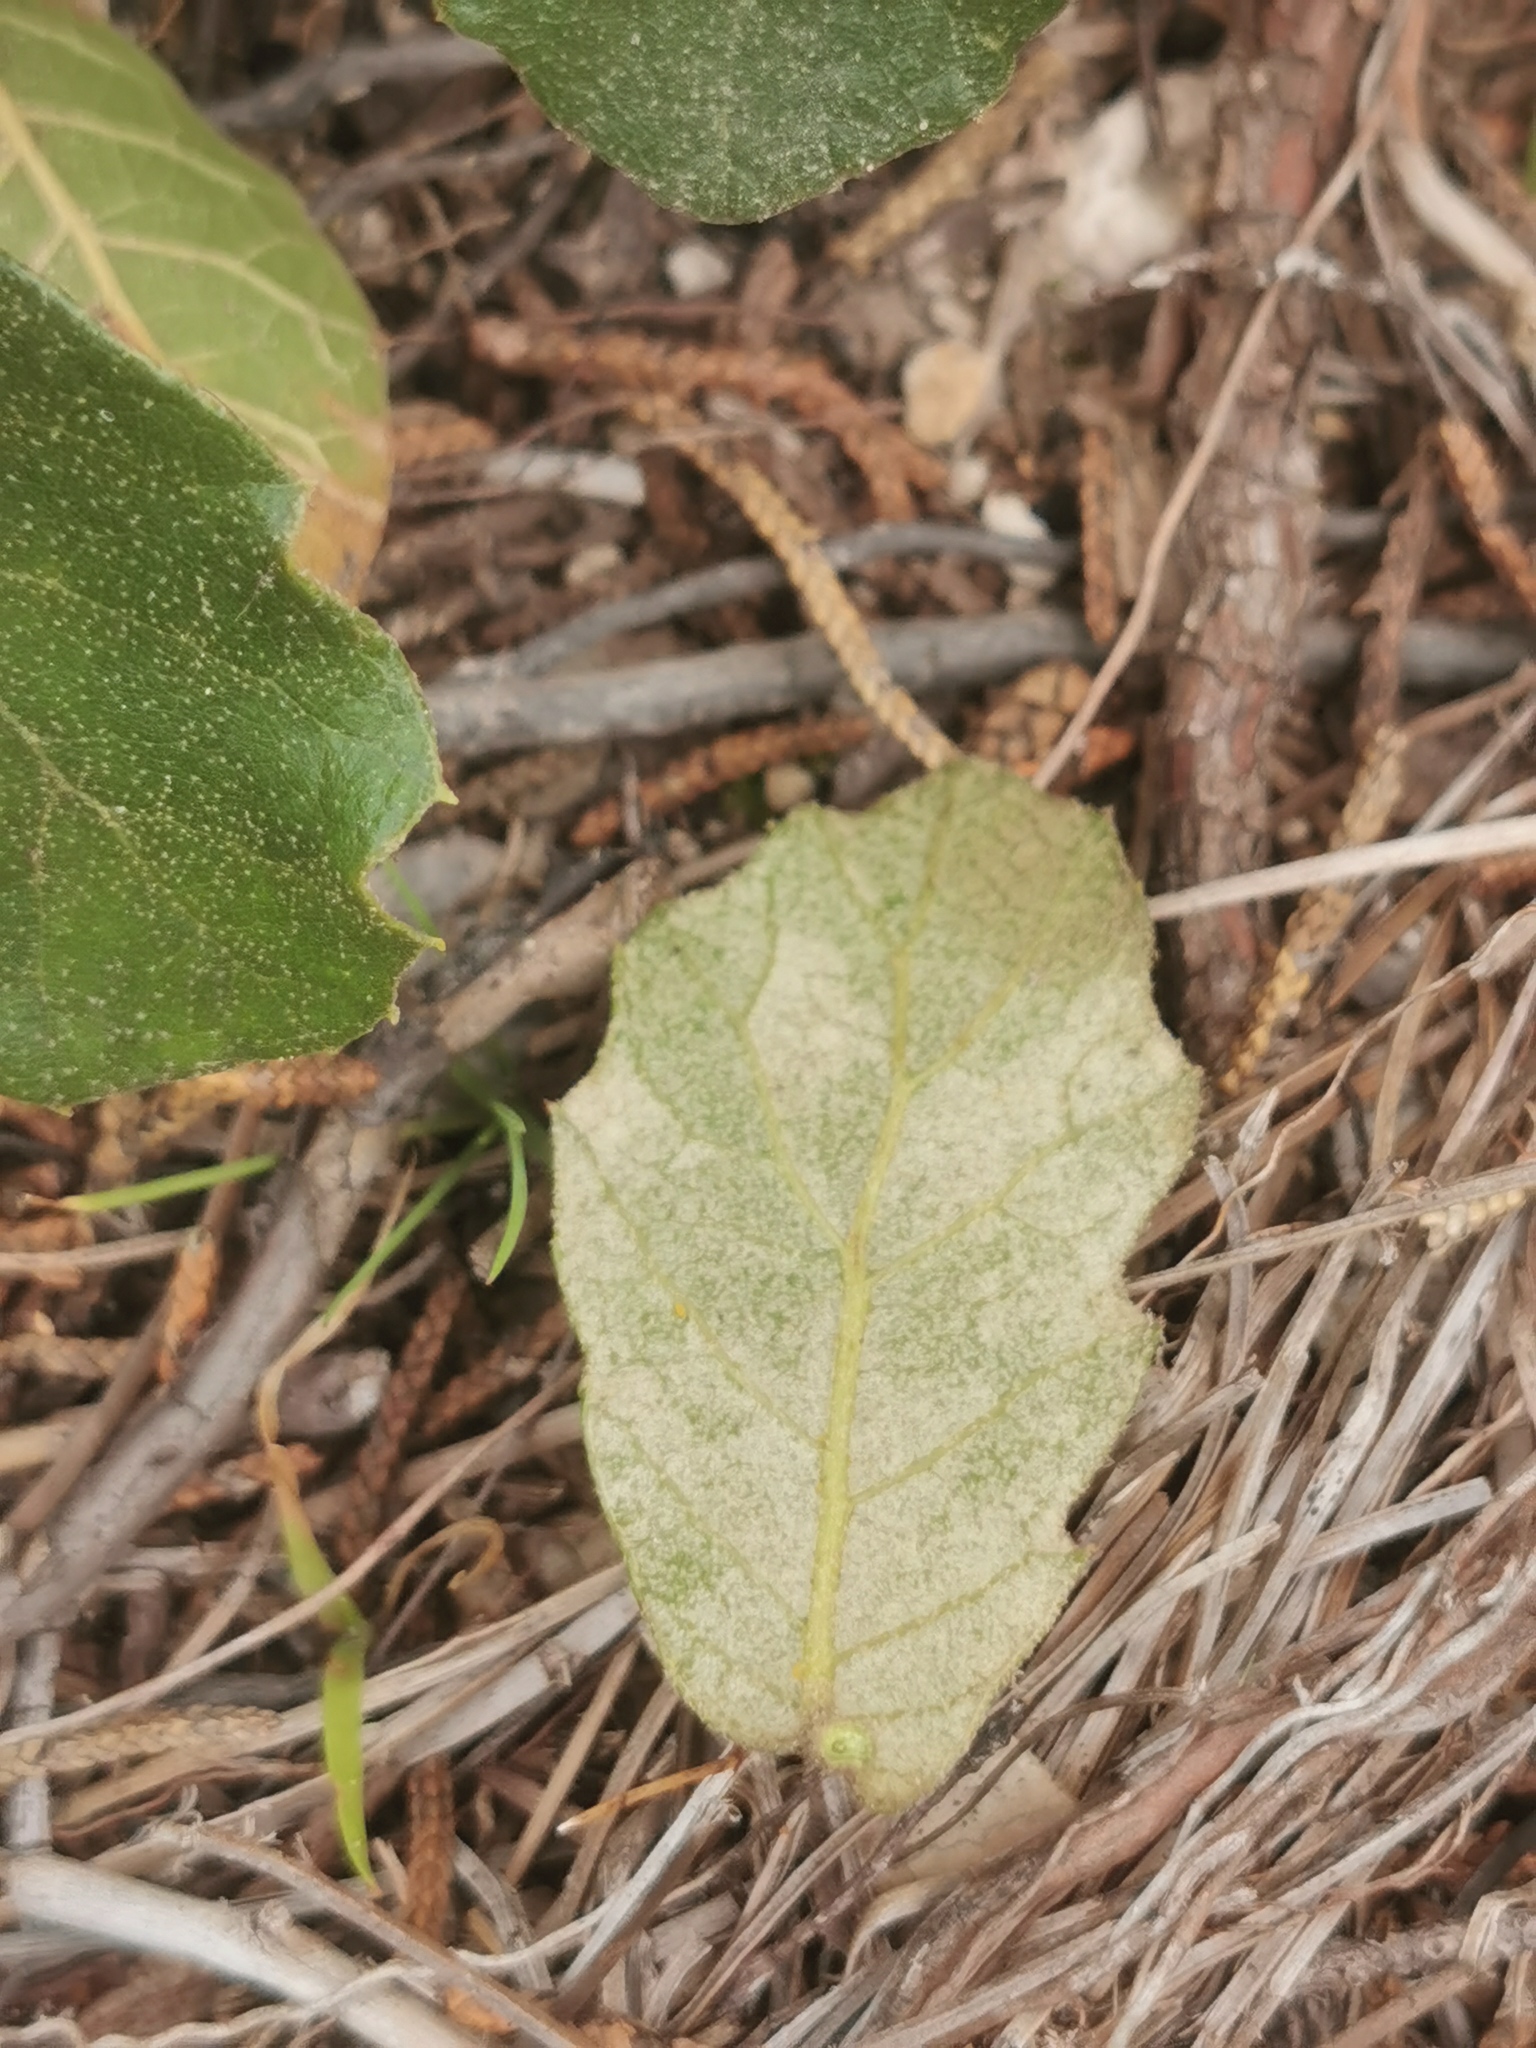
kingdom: Plantae
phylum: Tracheophyta
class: Magnoliopsida
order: Fagales
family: Fagaceae
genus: Quercus
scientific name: Quercus sideroxyla
